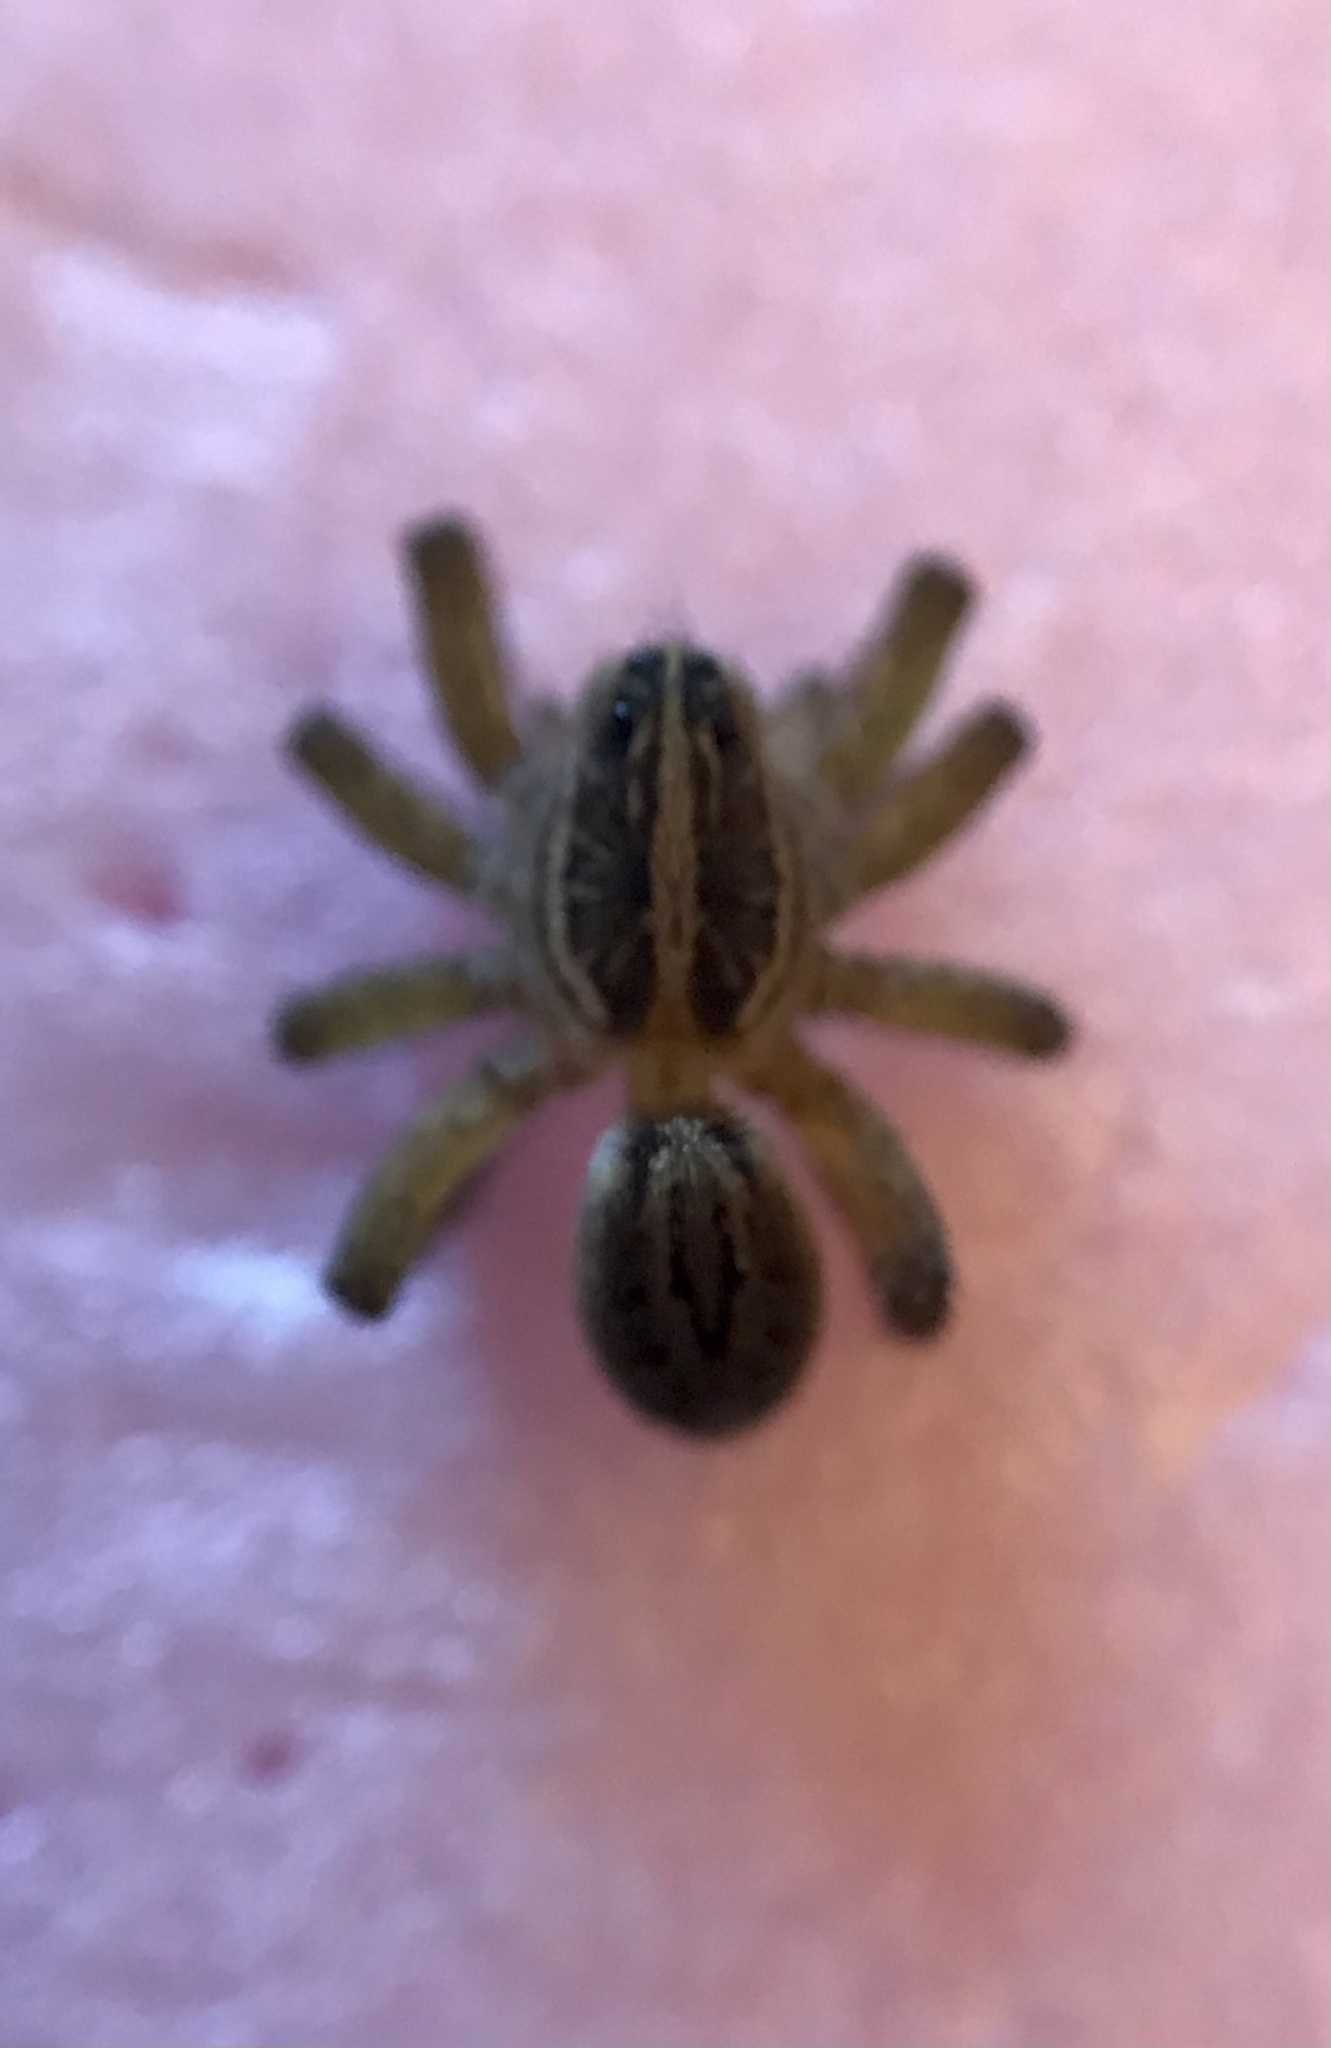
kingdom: Animalia
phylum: Arthropoda
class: Arachnida
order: Araneae
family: Lycosidae
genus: Tigrosa
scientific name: Tigrosa annexa
